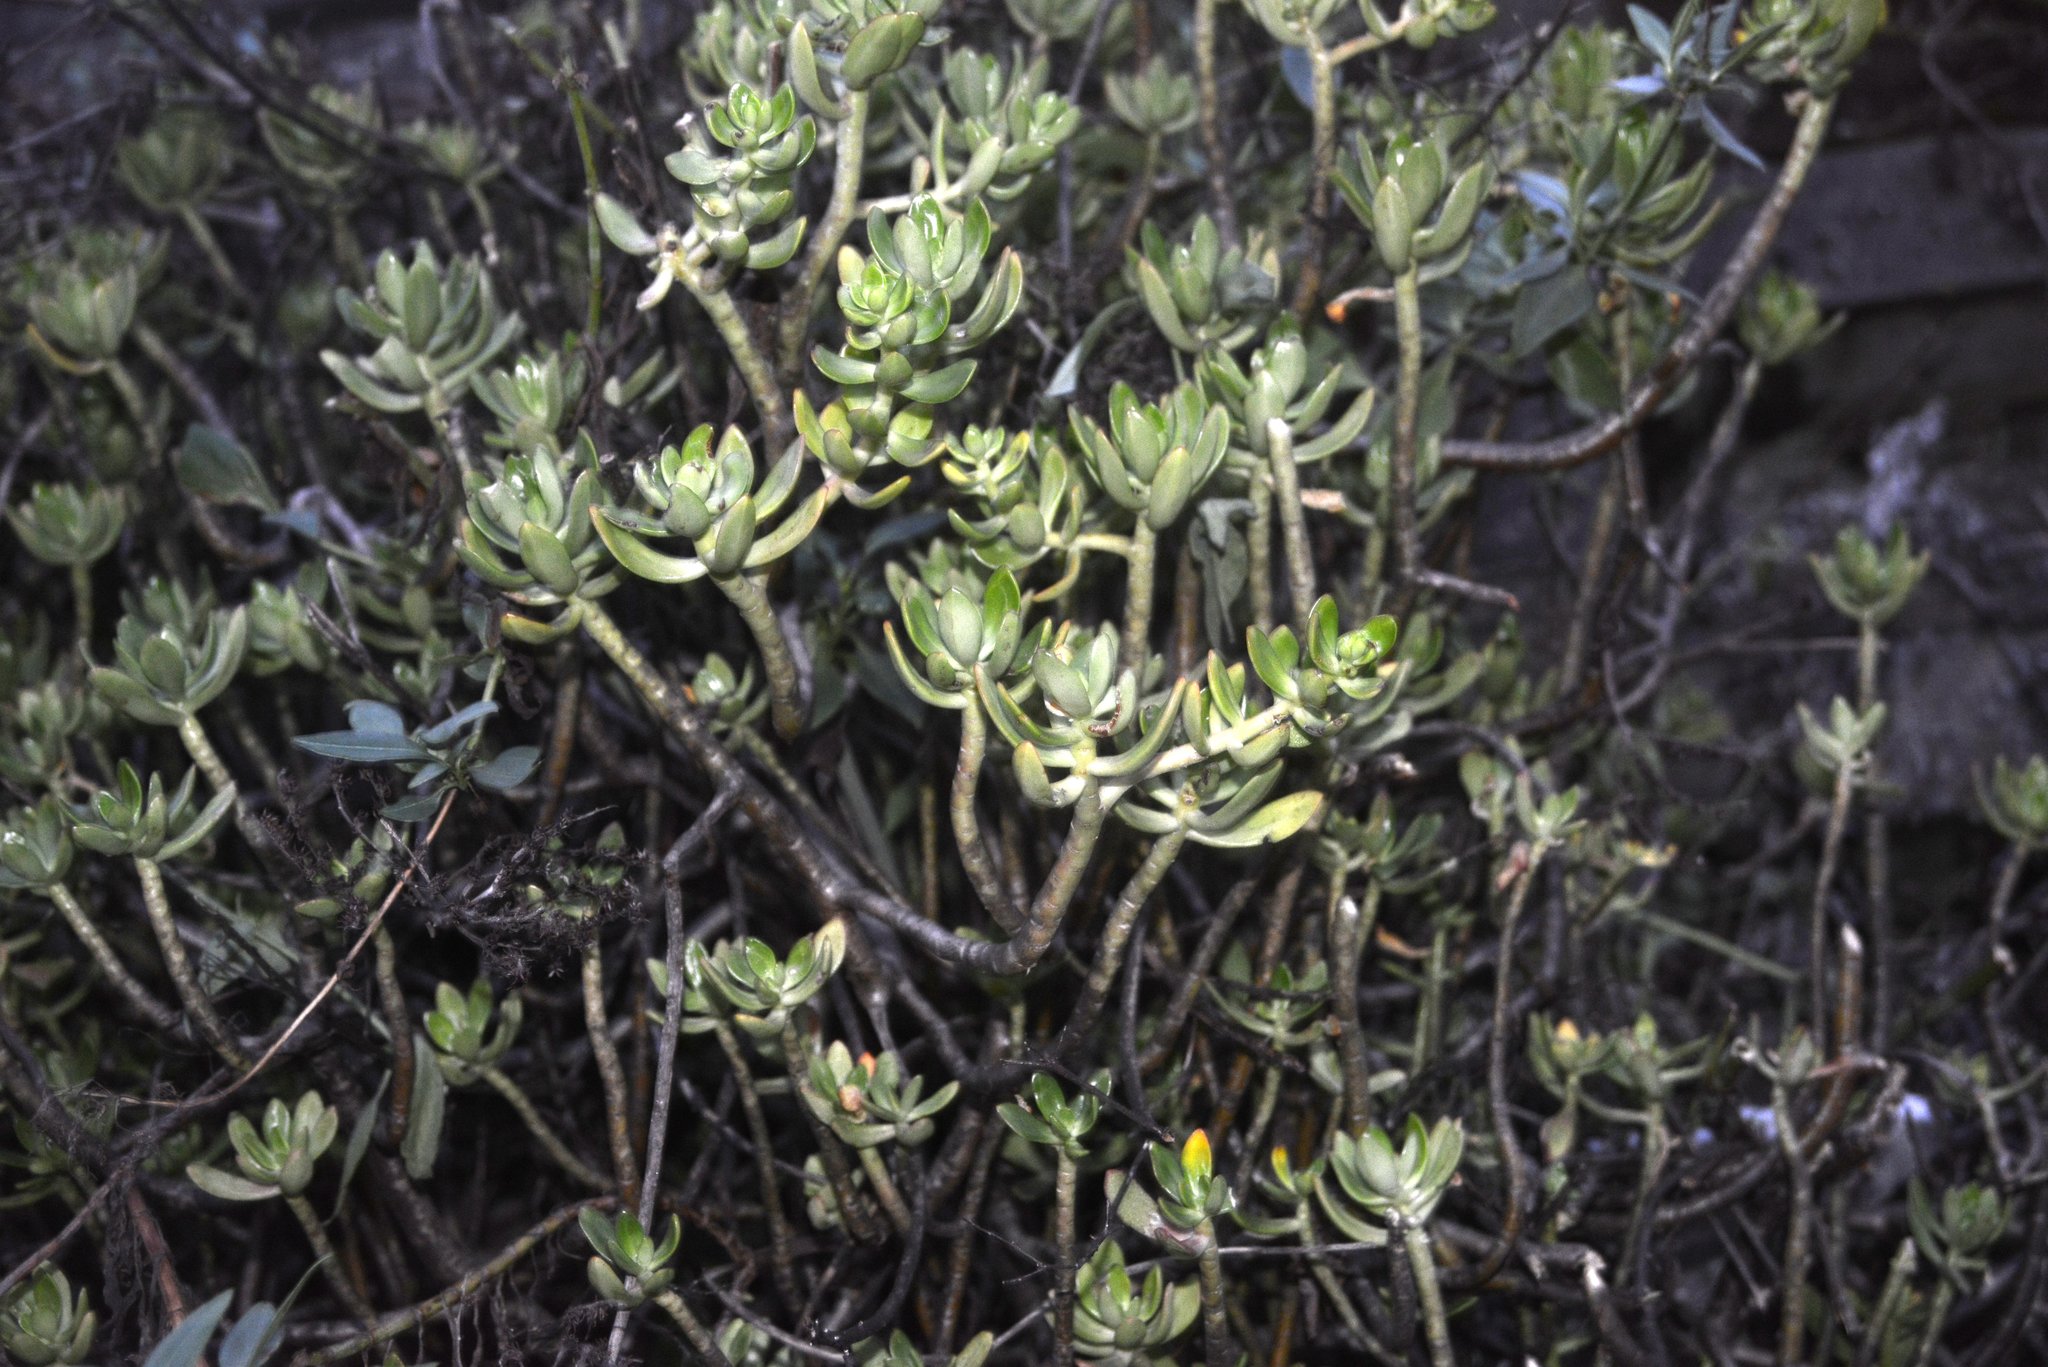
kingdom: Plantae
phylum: Tracheophyta
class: Magnoliopsida
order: Saxifragales
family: Crassulaceae
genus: Sedum
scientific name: Sedum praealtum
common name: Greater mexican-stonecrop
